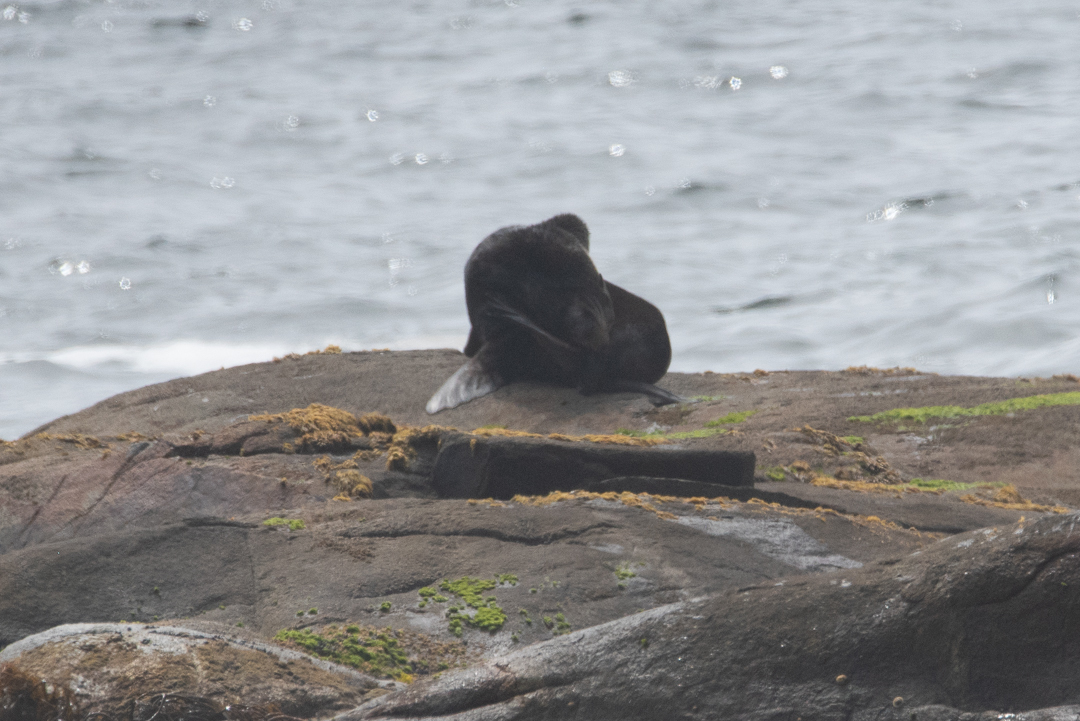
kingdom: Animalia
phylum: Chordata
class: Mammalia
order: Carnivora
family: Otariidae
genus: Otaria
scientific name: Otaria byronia
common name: South american sea lion
